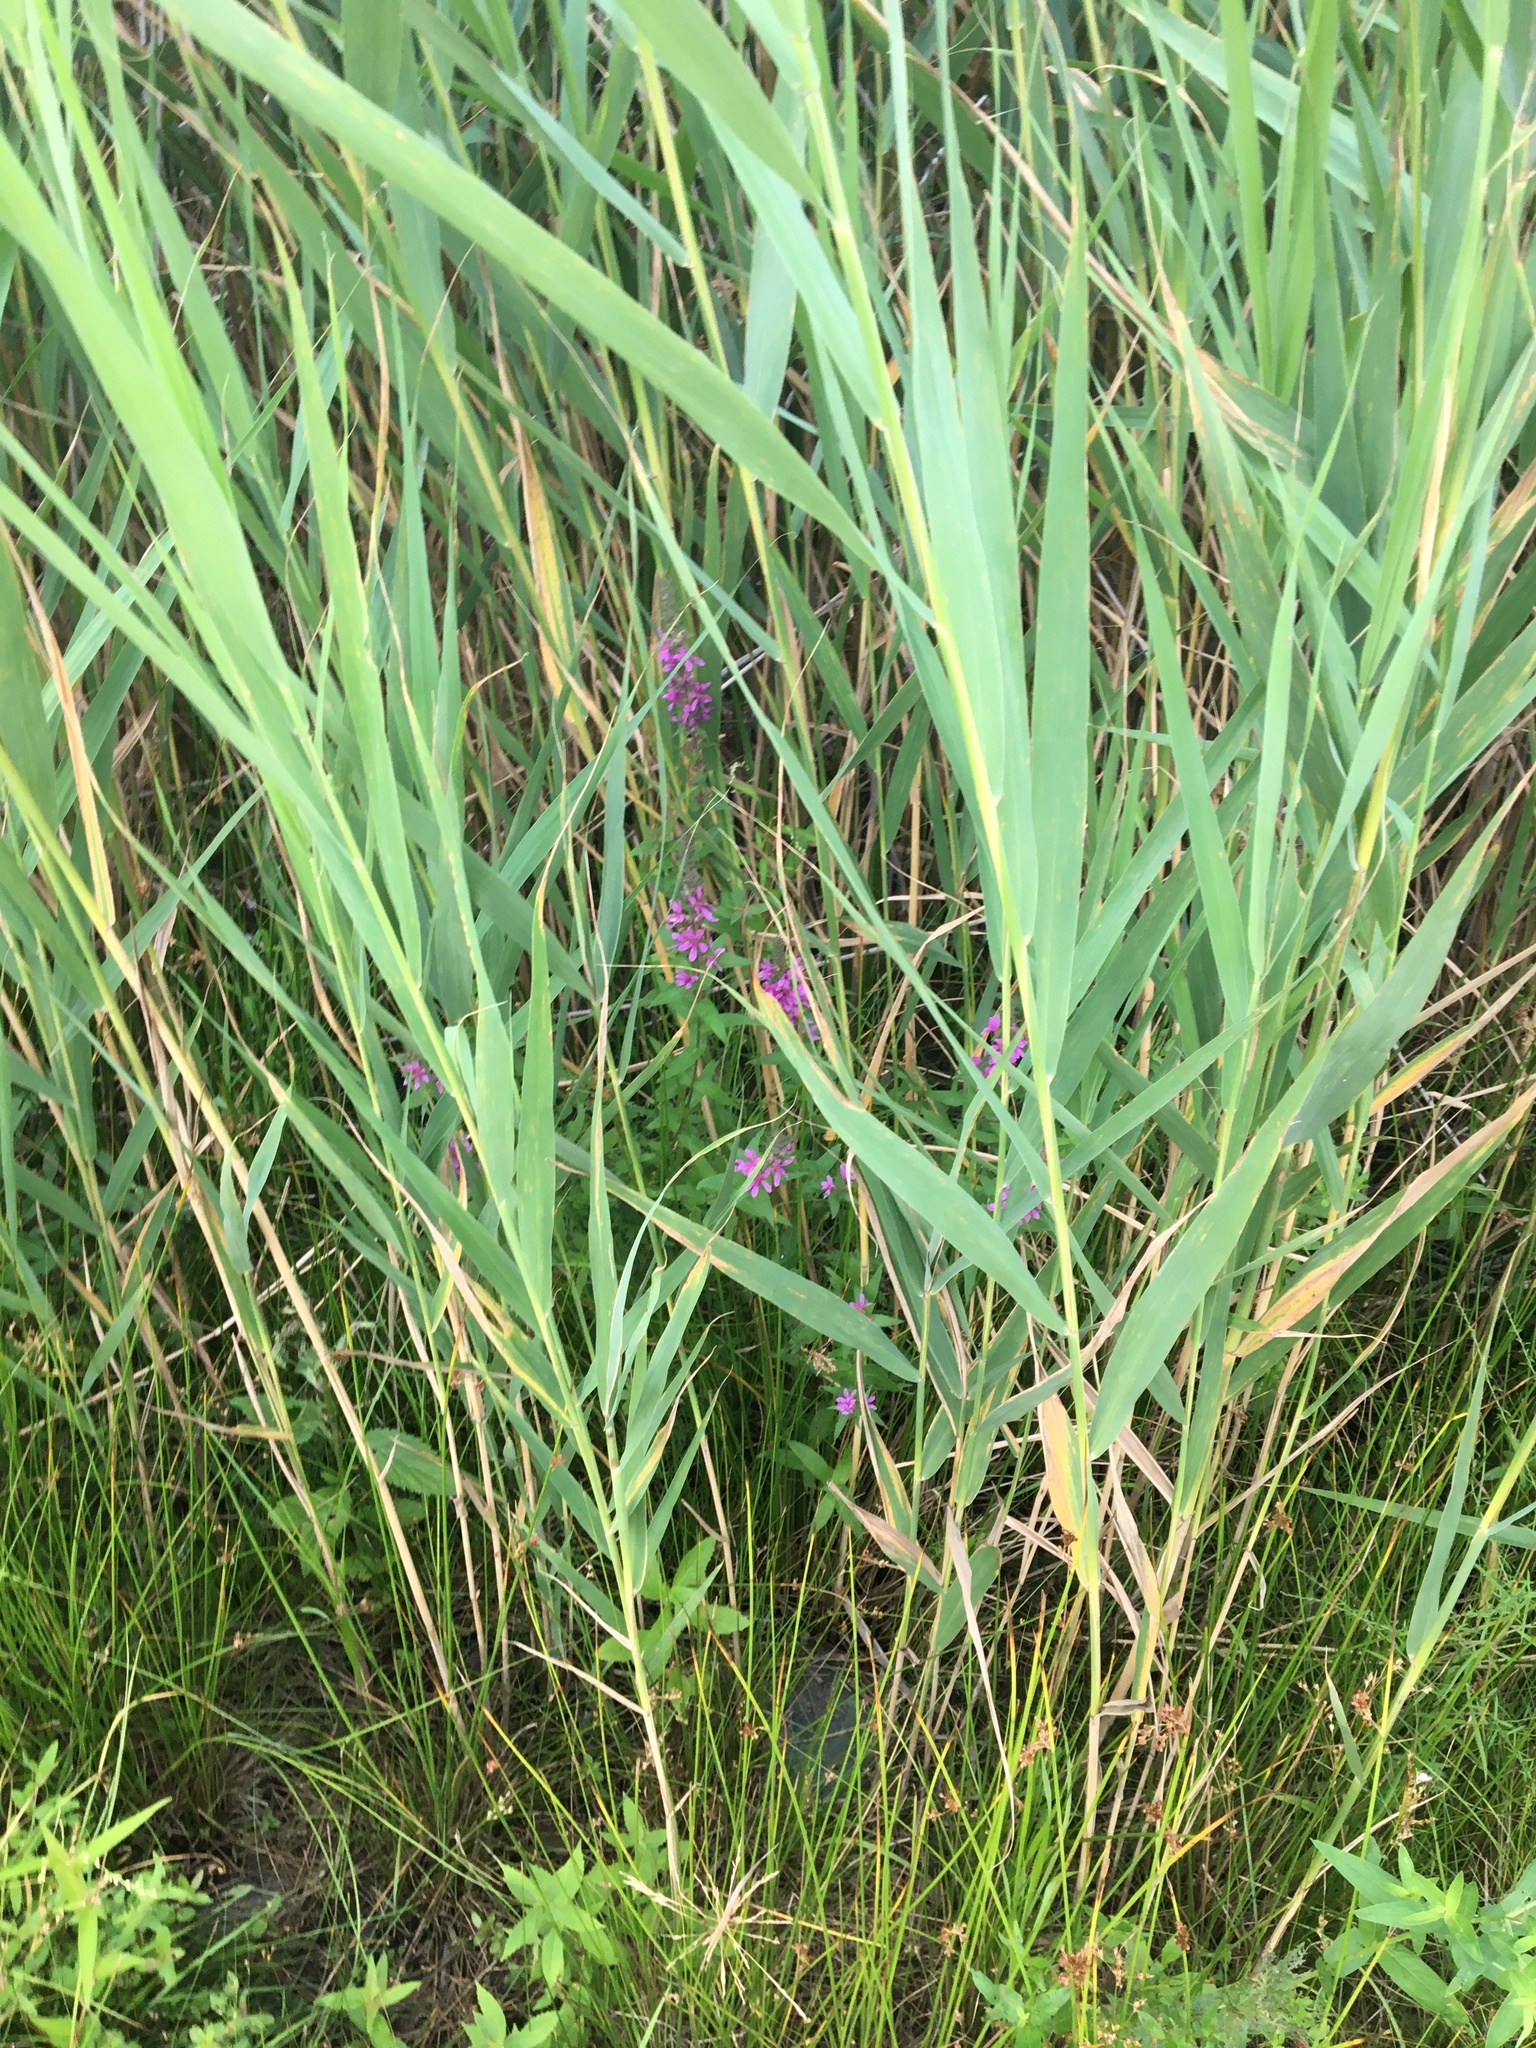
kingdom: Plantae
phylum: Tracheophyta
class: Magnoliopsida
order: Myrtales
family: Lythraceae
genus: Lythrum
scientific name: Lythrum salicaria
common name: Purple loosestrife
